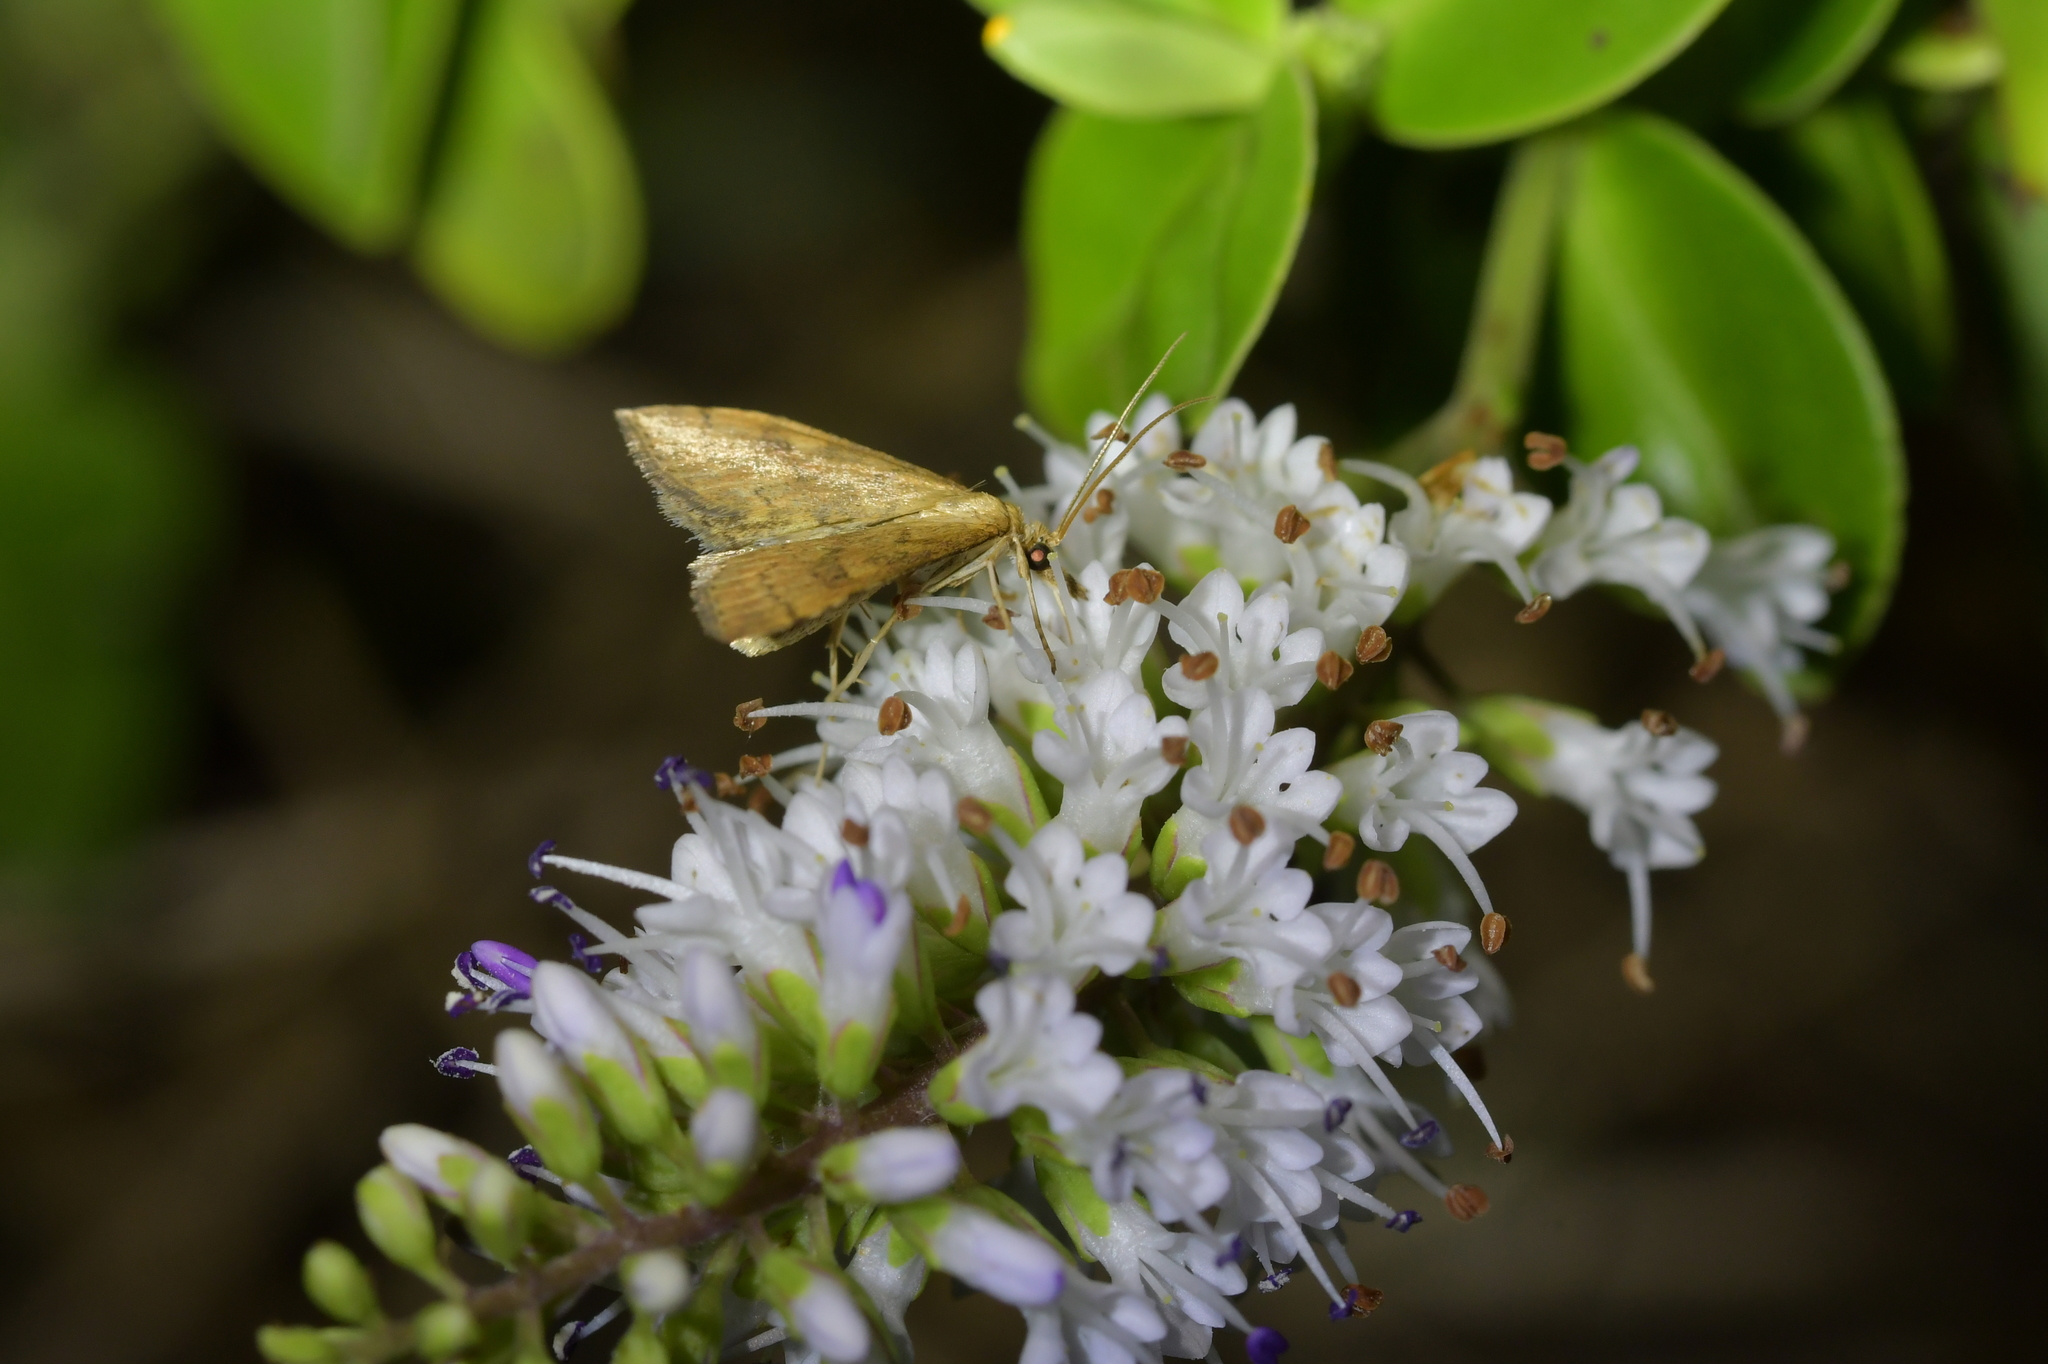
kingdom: Animalia
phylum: Arthropoda
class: Insecta
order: Lepidoptera
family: Crambidae
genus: Udea
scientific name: Udea Mnesictena flavidalis
